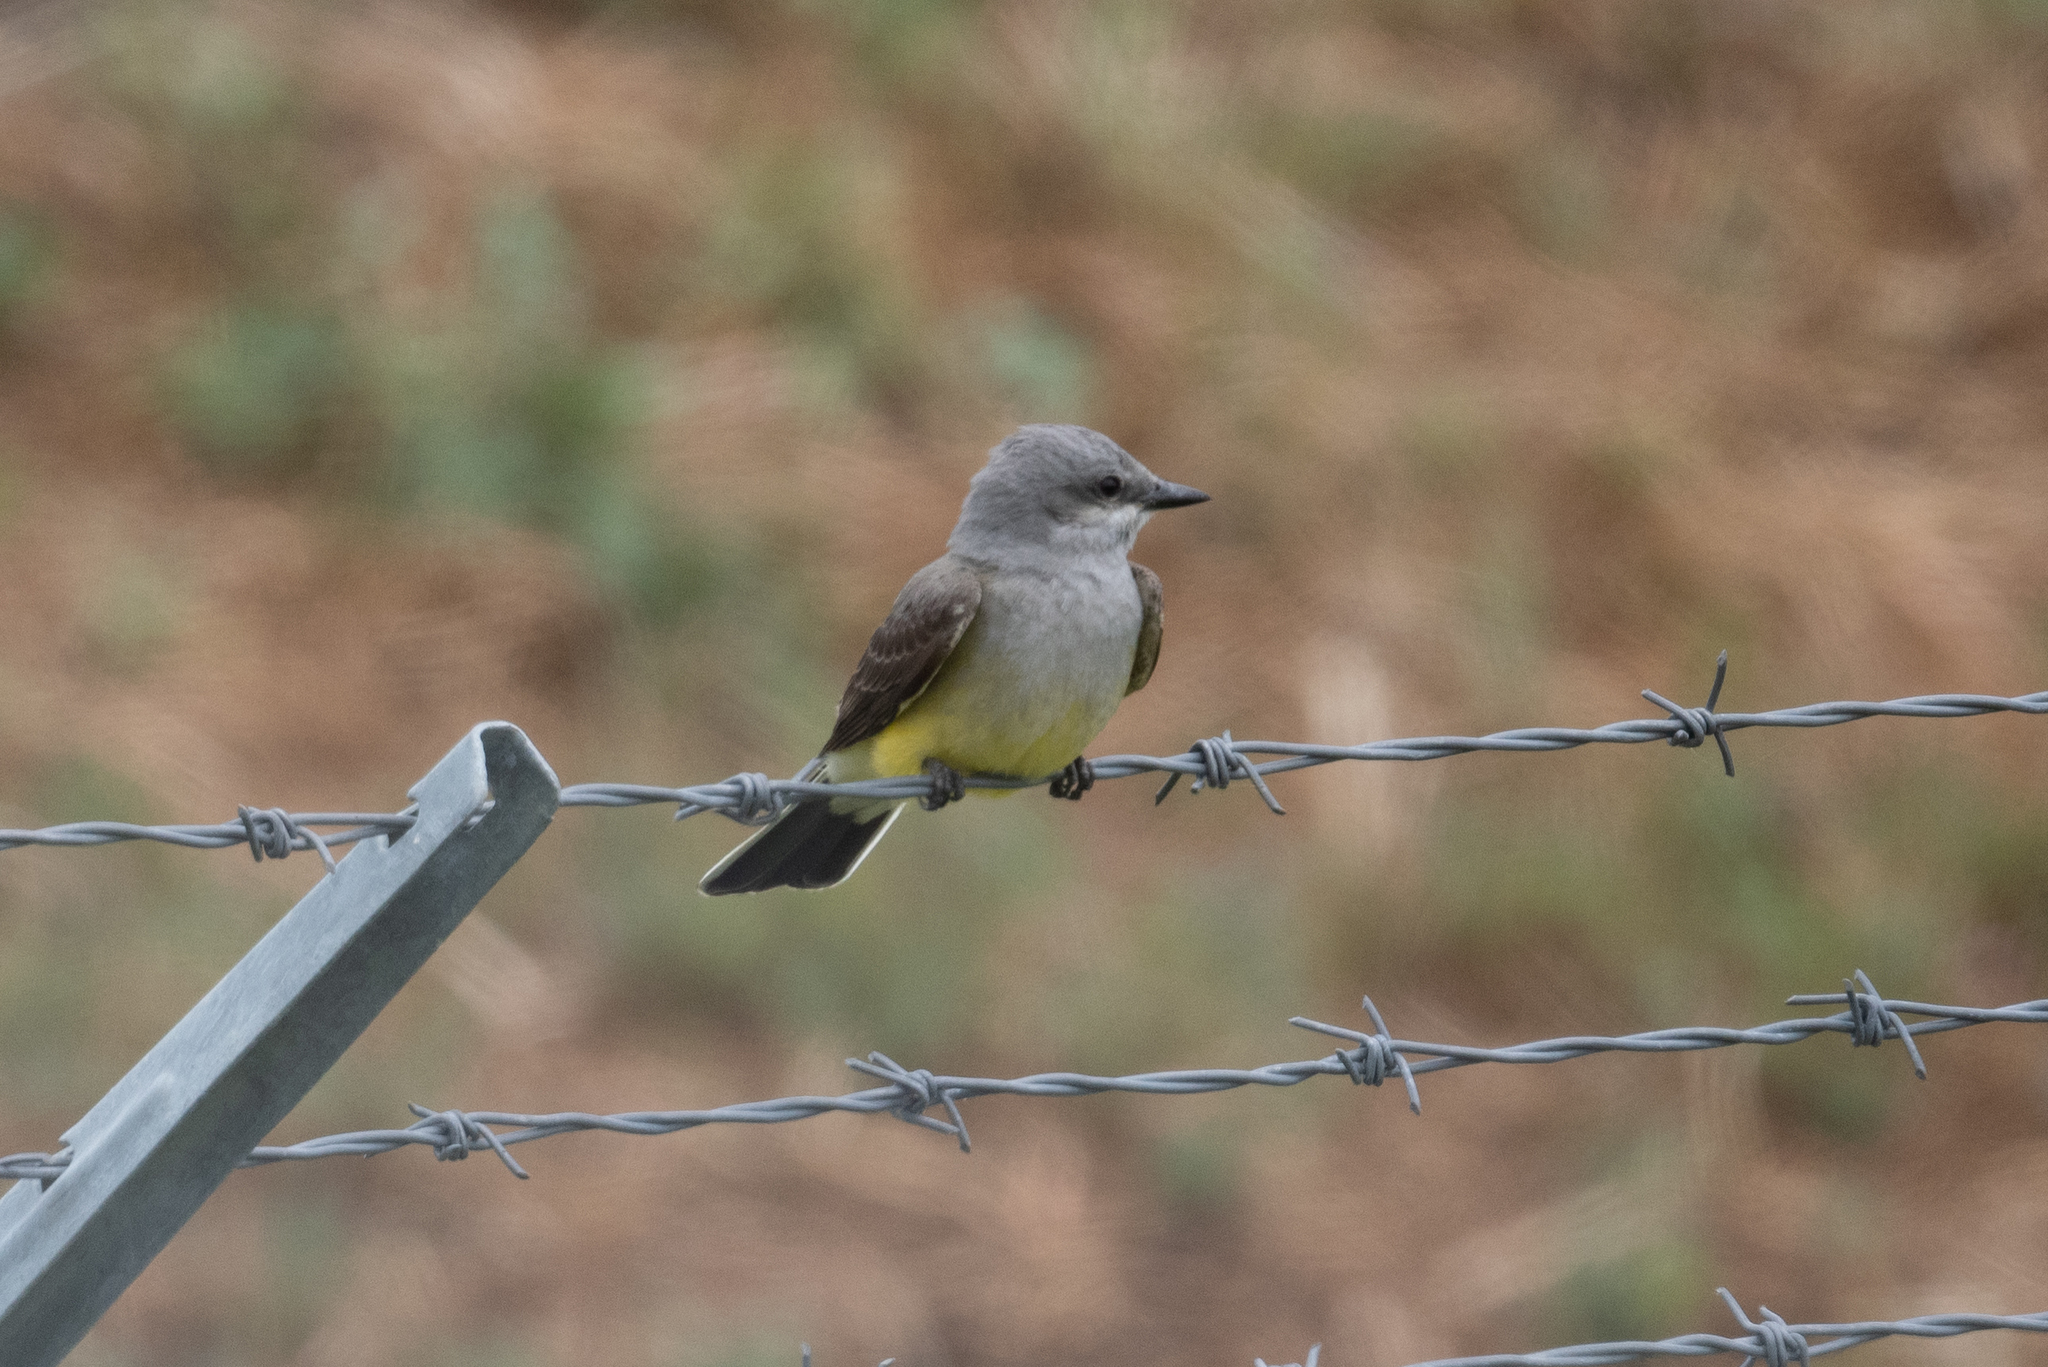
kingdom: Animalia
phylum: Chordata
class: Aves
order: Passeriformes
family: Tyrannidae
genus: Tyrannus
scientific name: Tyrannus verticalis
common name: Western kingbird
